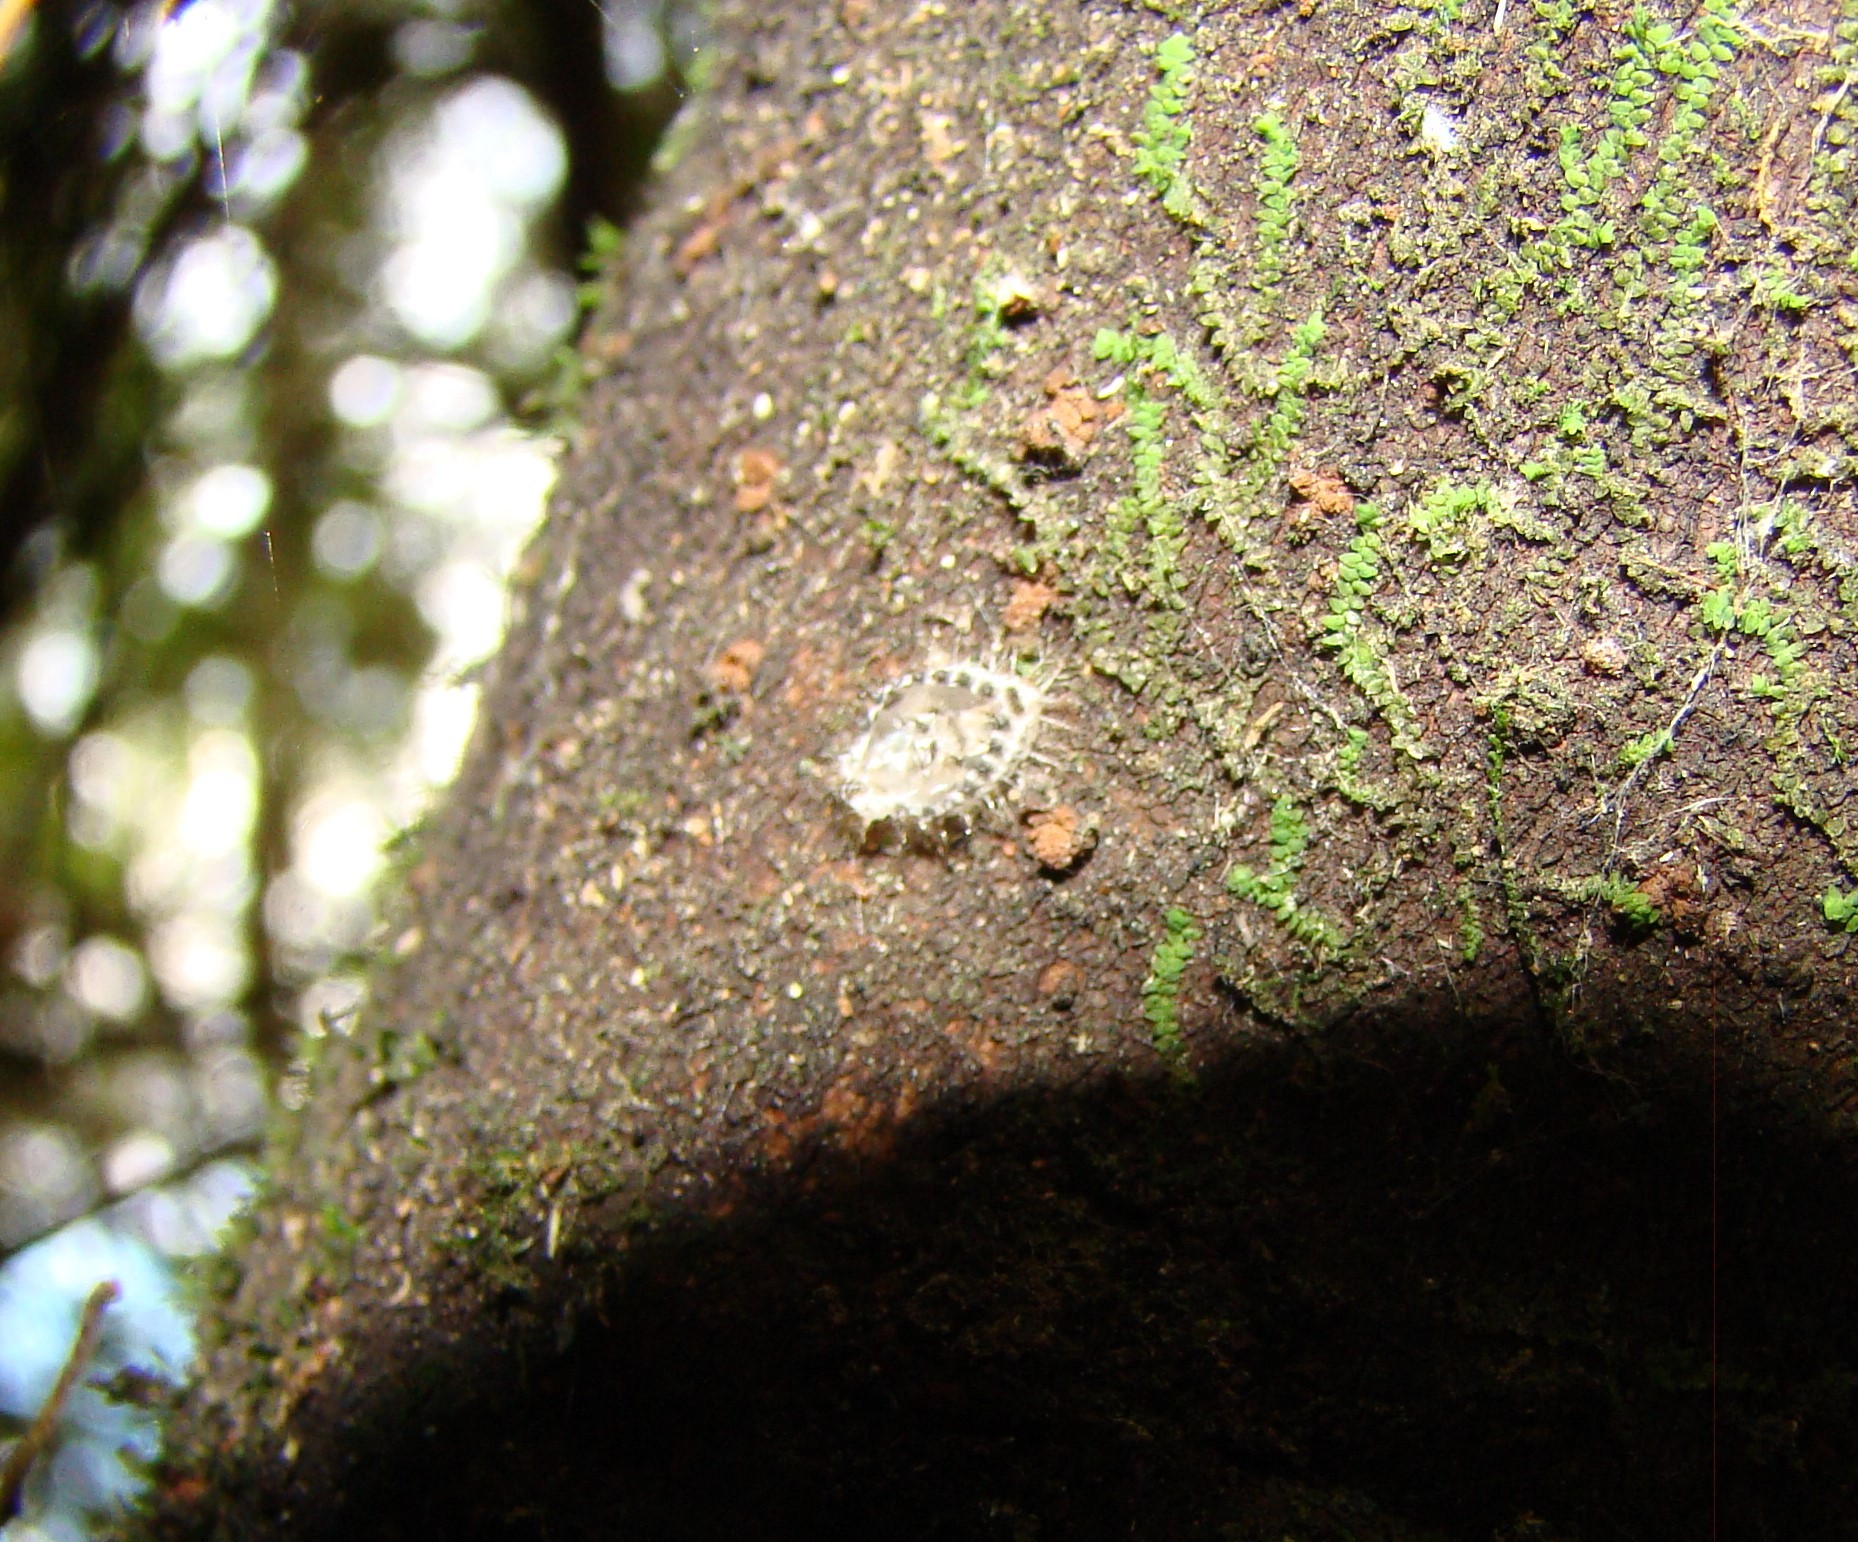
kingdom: Animalia
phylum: Arthropoda
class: Insecta
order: Coleoptera
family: Coccinellidae
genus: Halmus
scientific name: Halmus chalybeus
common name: Steel blue ladybird beetle
